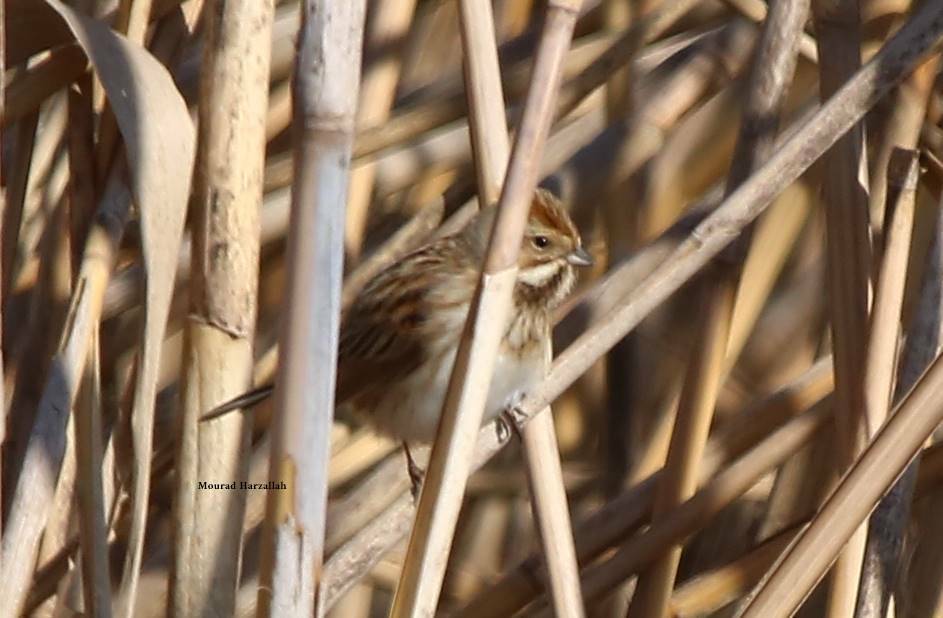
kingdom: Animalia
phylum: Chordata
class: Aves
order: Passeriformes
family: Emberizidae
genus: Emberiza
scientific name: Emberiza schoeniclus
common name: Reed bunting
